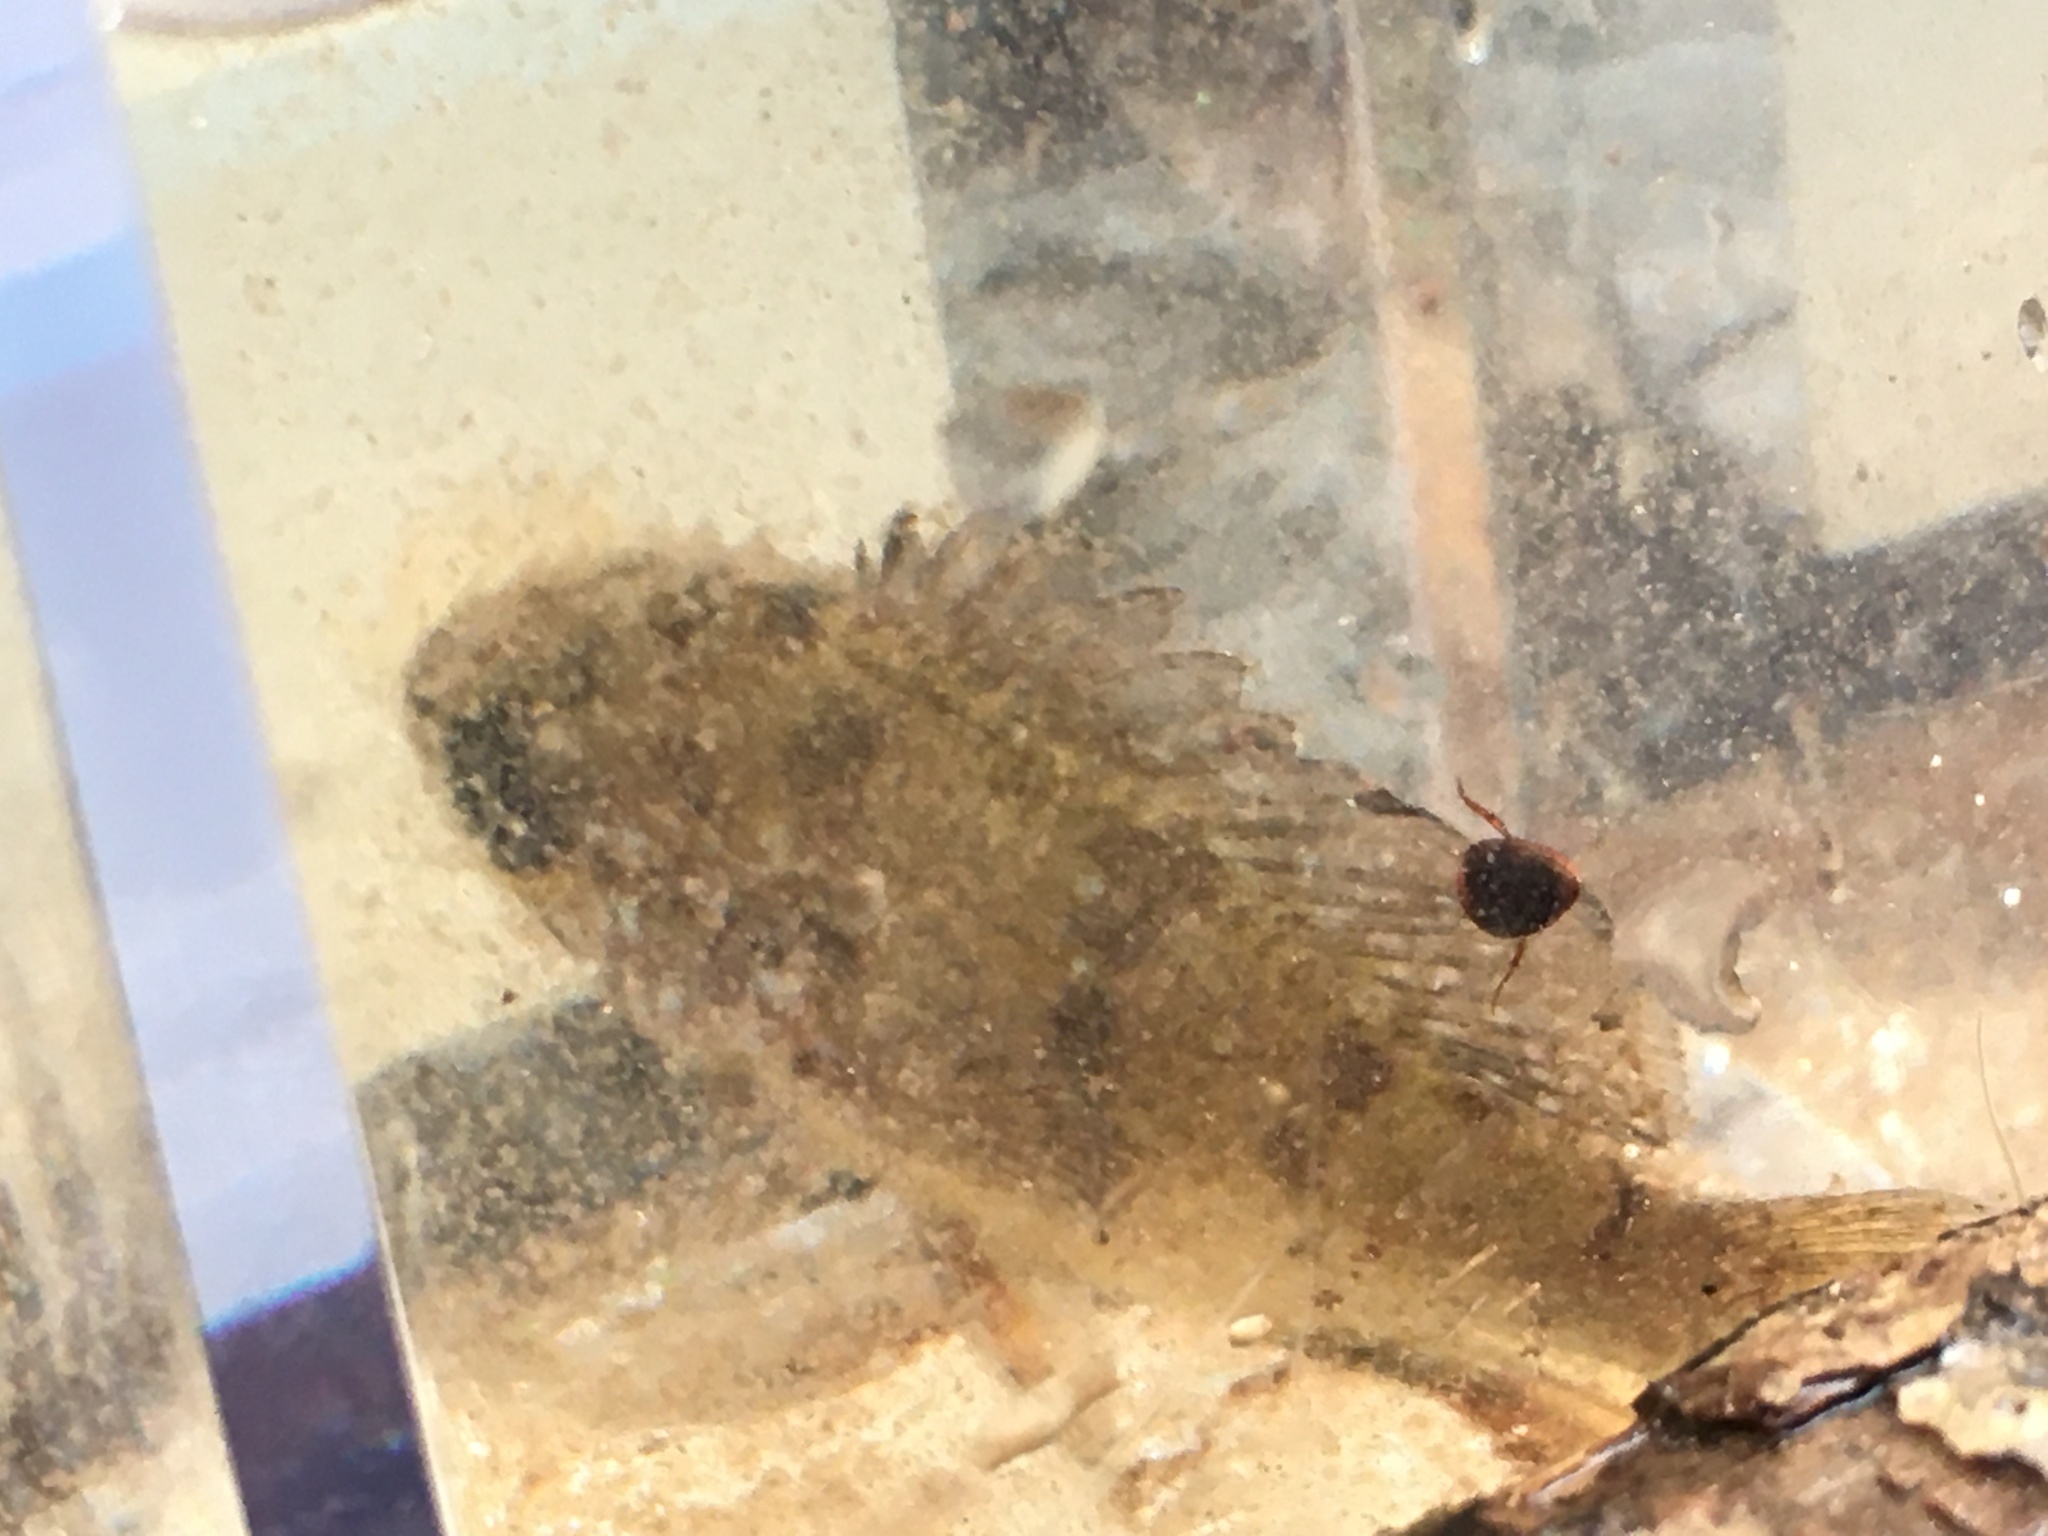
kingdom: Animalia
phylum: Chordata
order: Perciformes
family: Centrarchidae
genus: Enneacanthus
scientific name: Enneacanthus gloriosus
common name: Bluespotted sunfish
